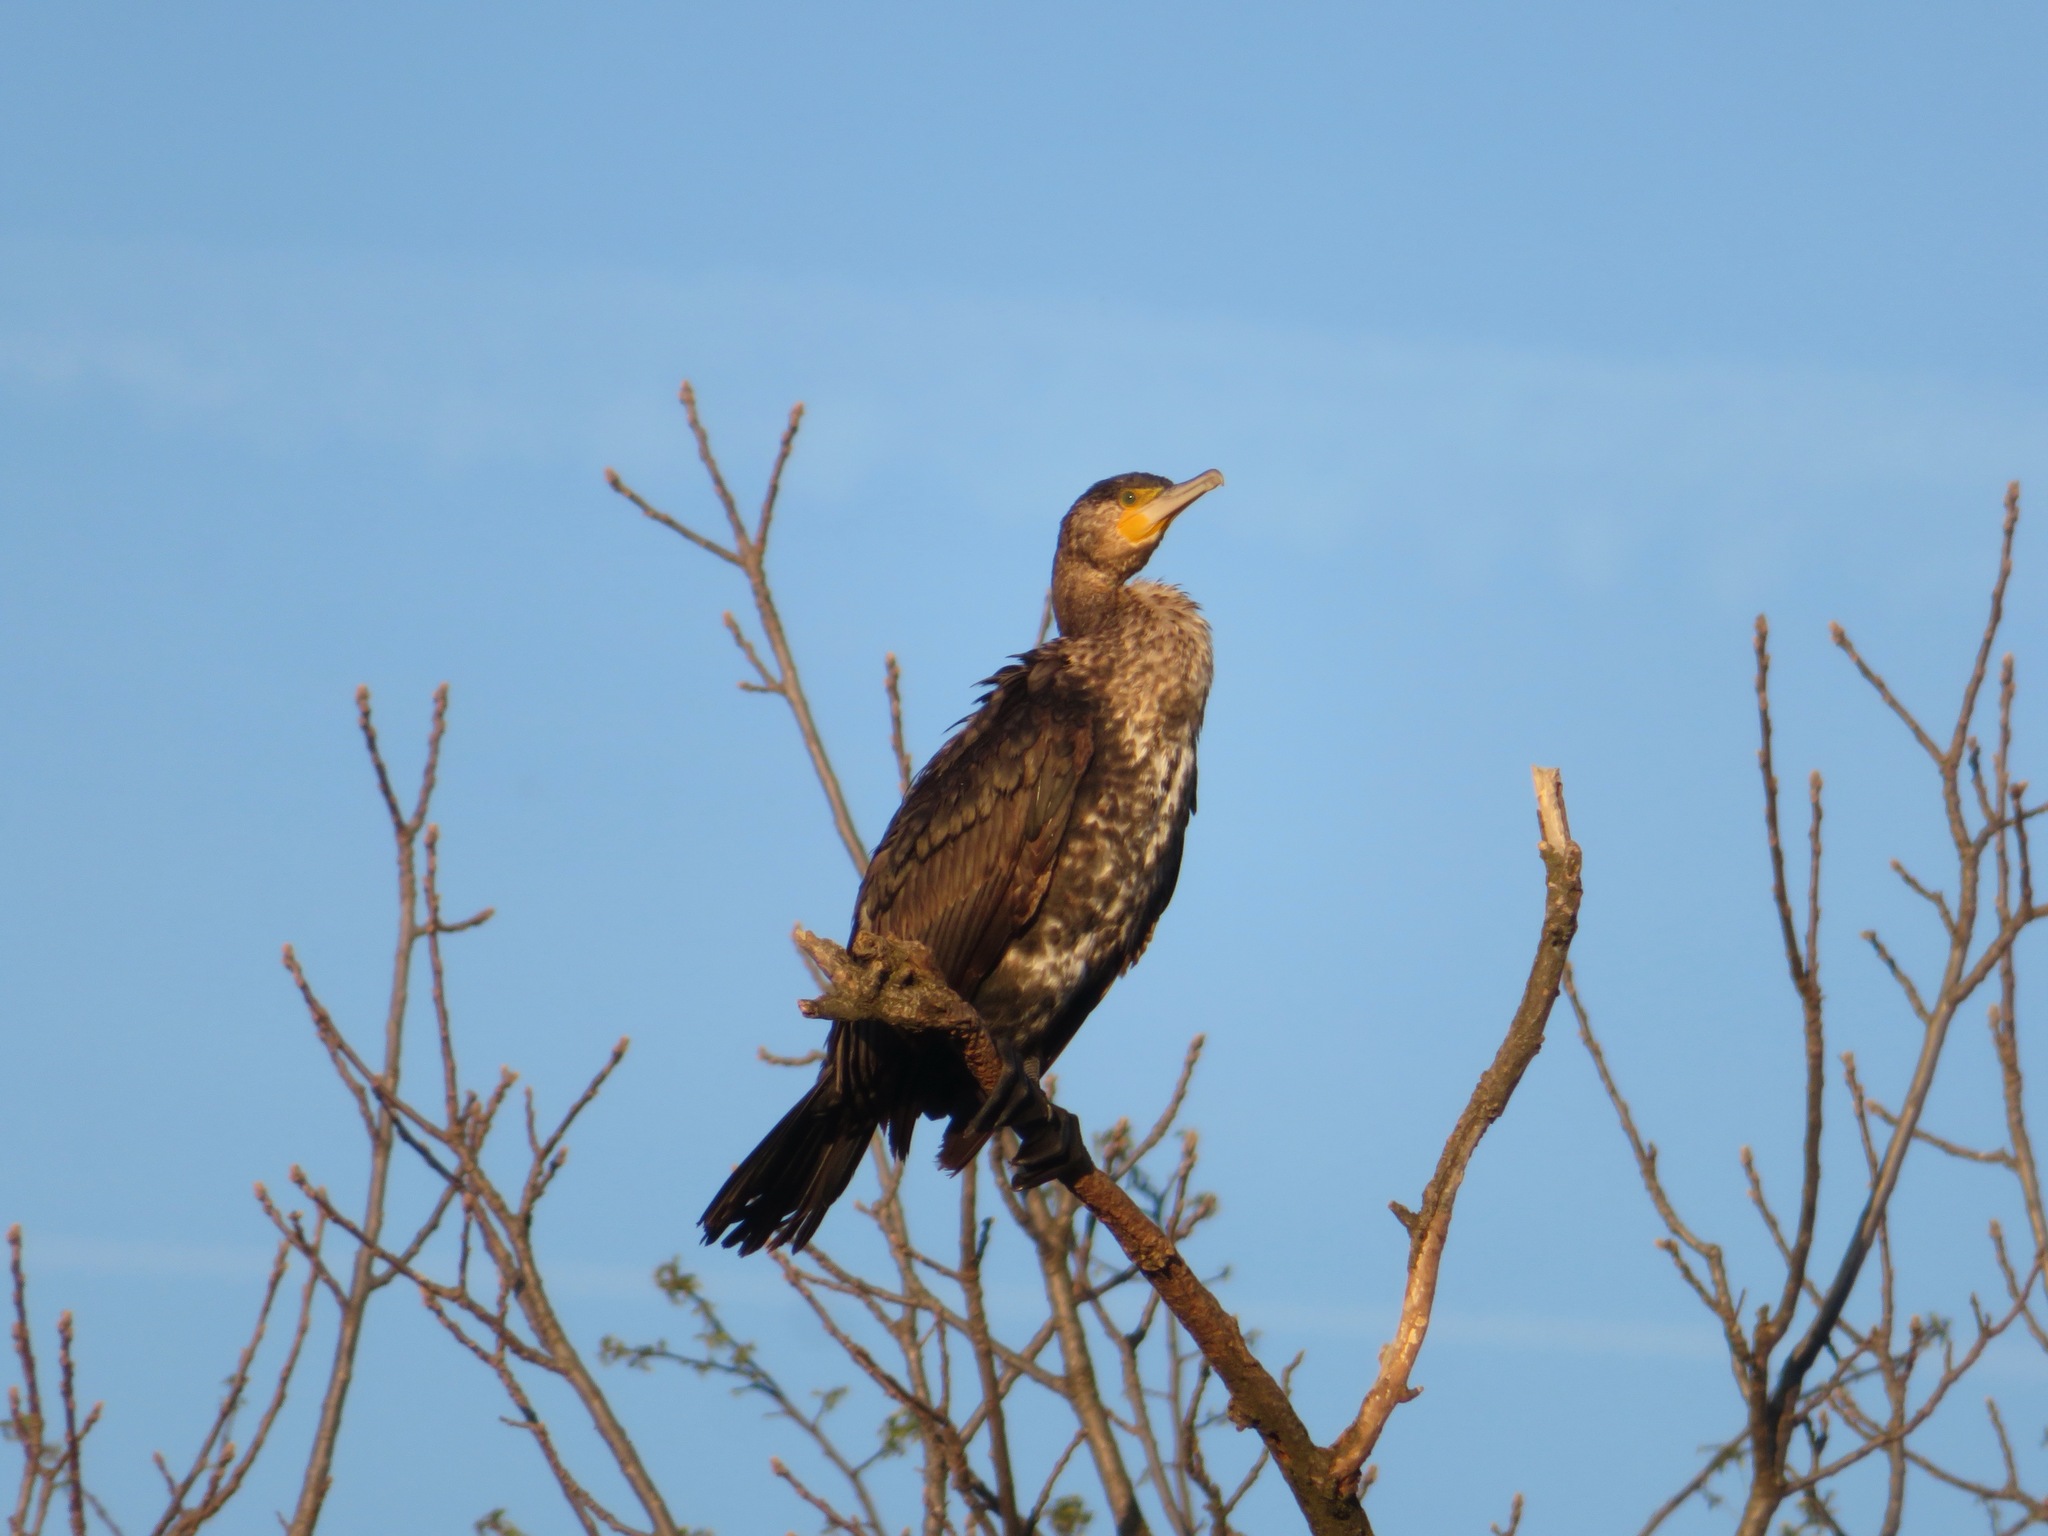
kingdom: Animalia
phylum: Chordata
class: Aves
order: Suliformes
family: Phalacrocoracidae
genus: Phalacrocorax
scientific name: Phalacrocorax carbo
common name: Great cormorant
